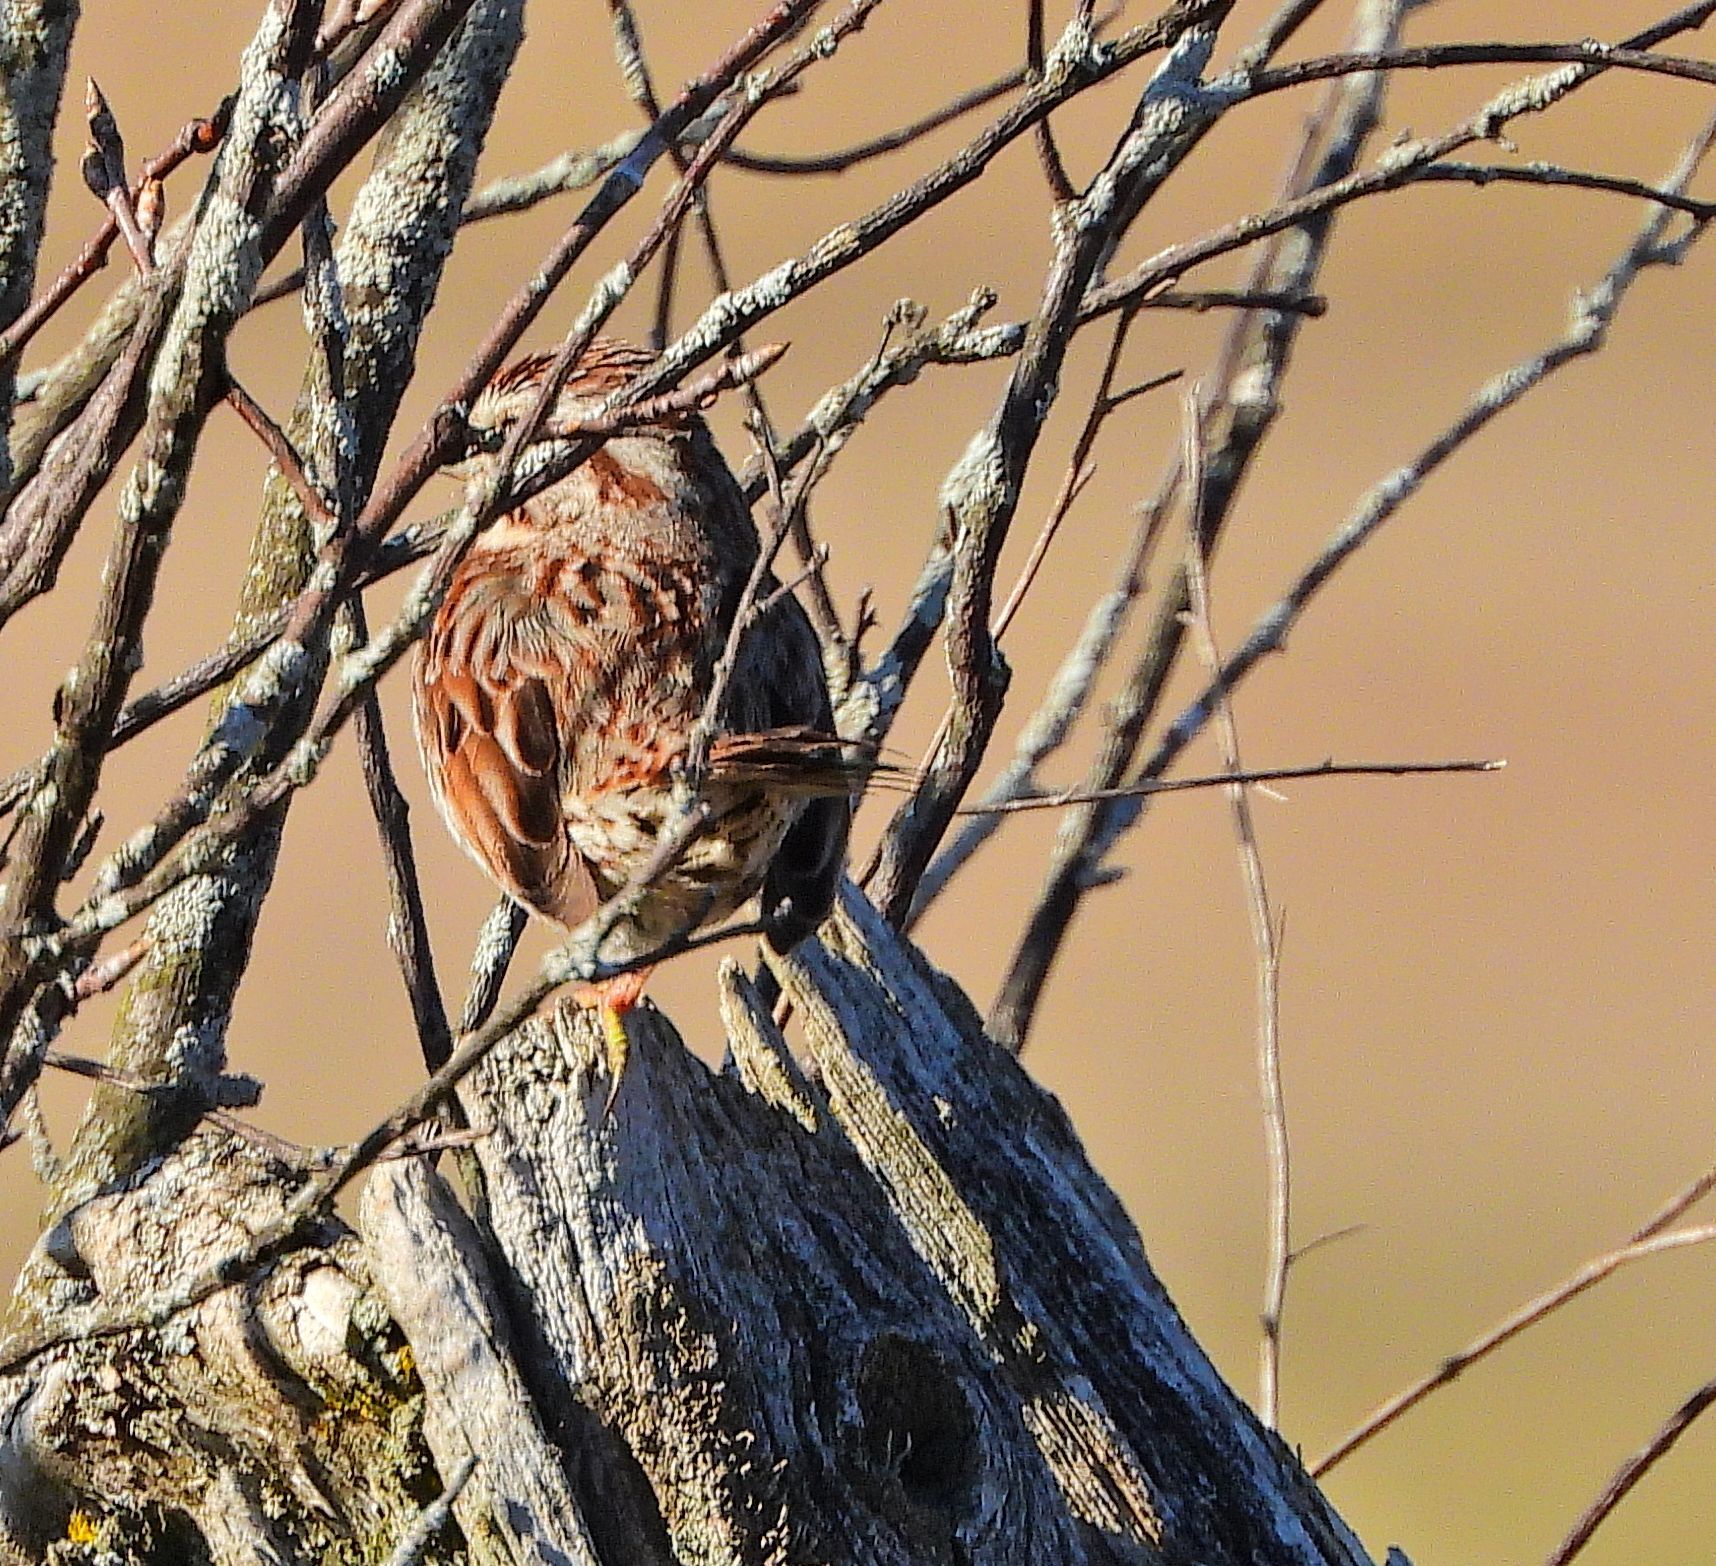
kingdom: Animalia
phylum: Chordata
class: Aves
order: Passeriformes
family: Passerellidae
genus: Melospiza
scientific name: Melospiza melodia
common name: Song sparrow
